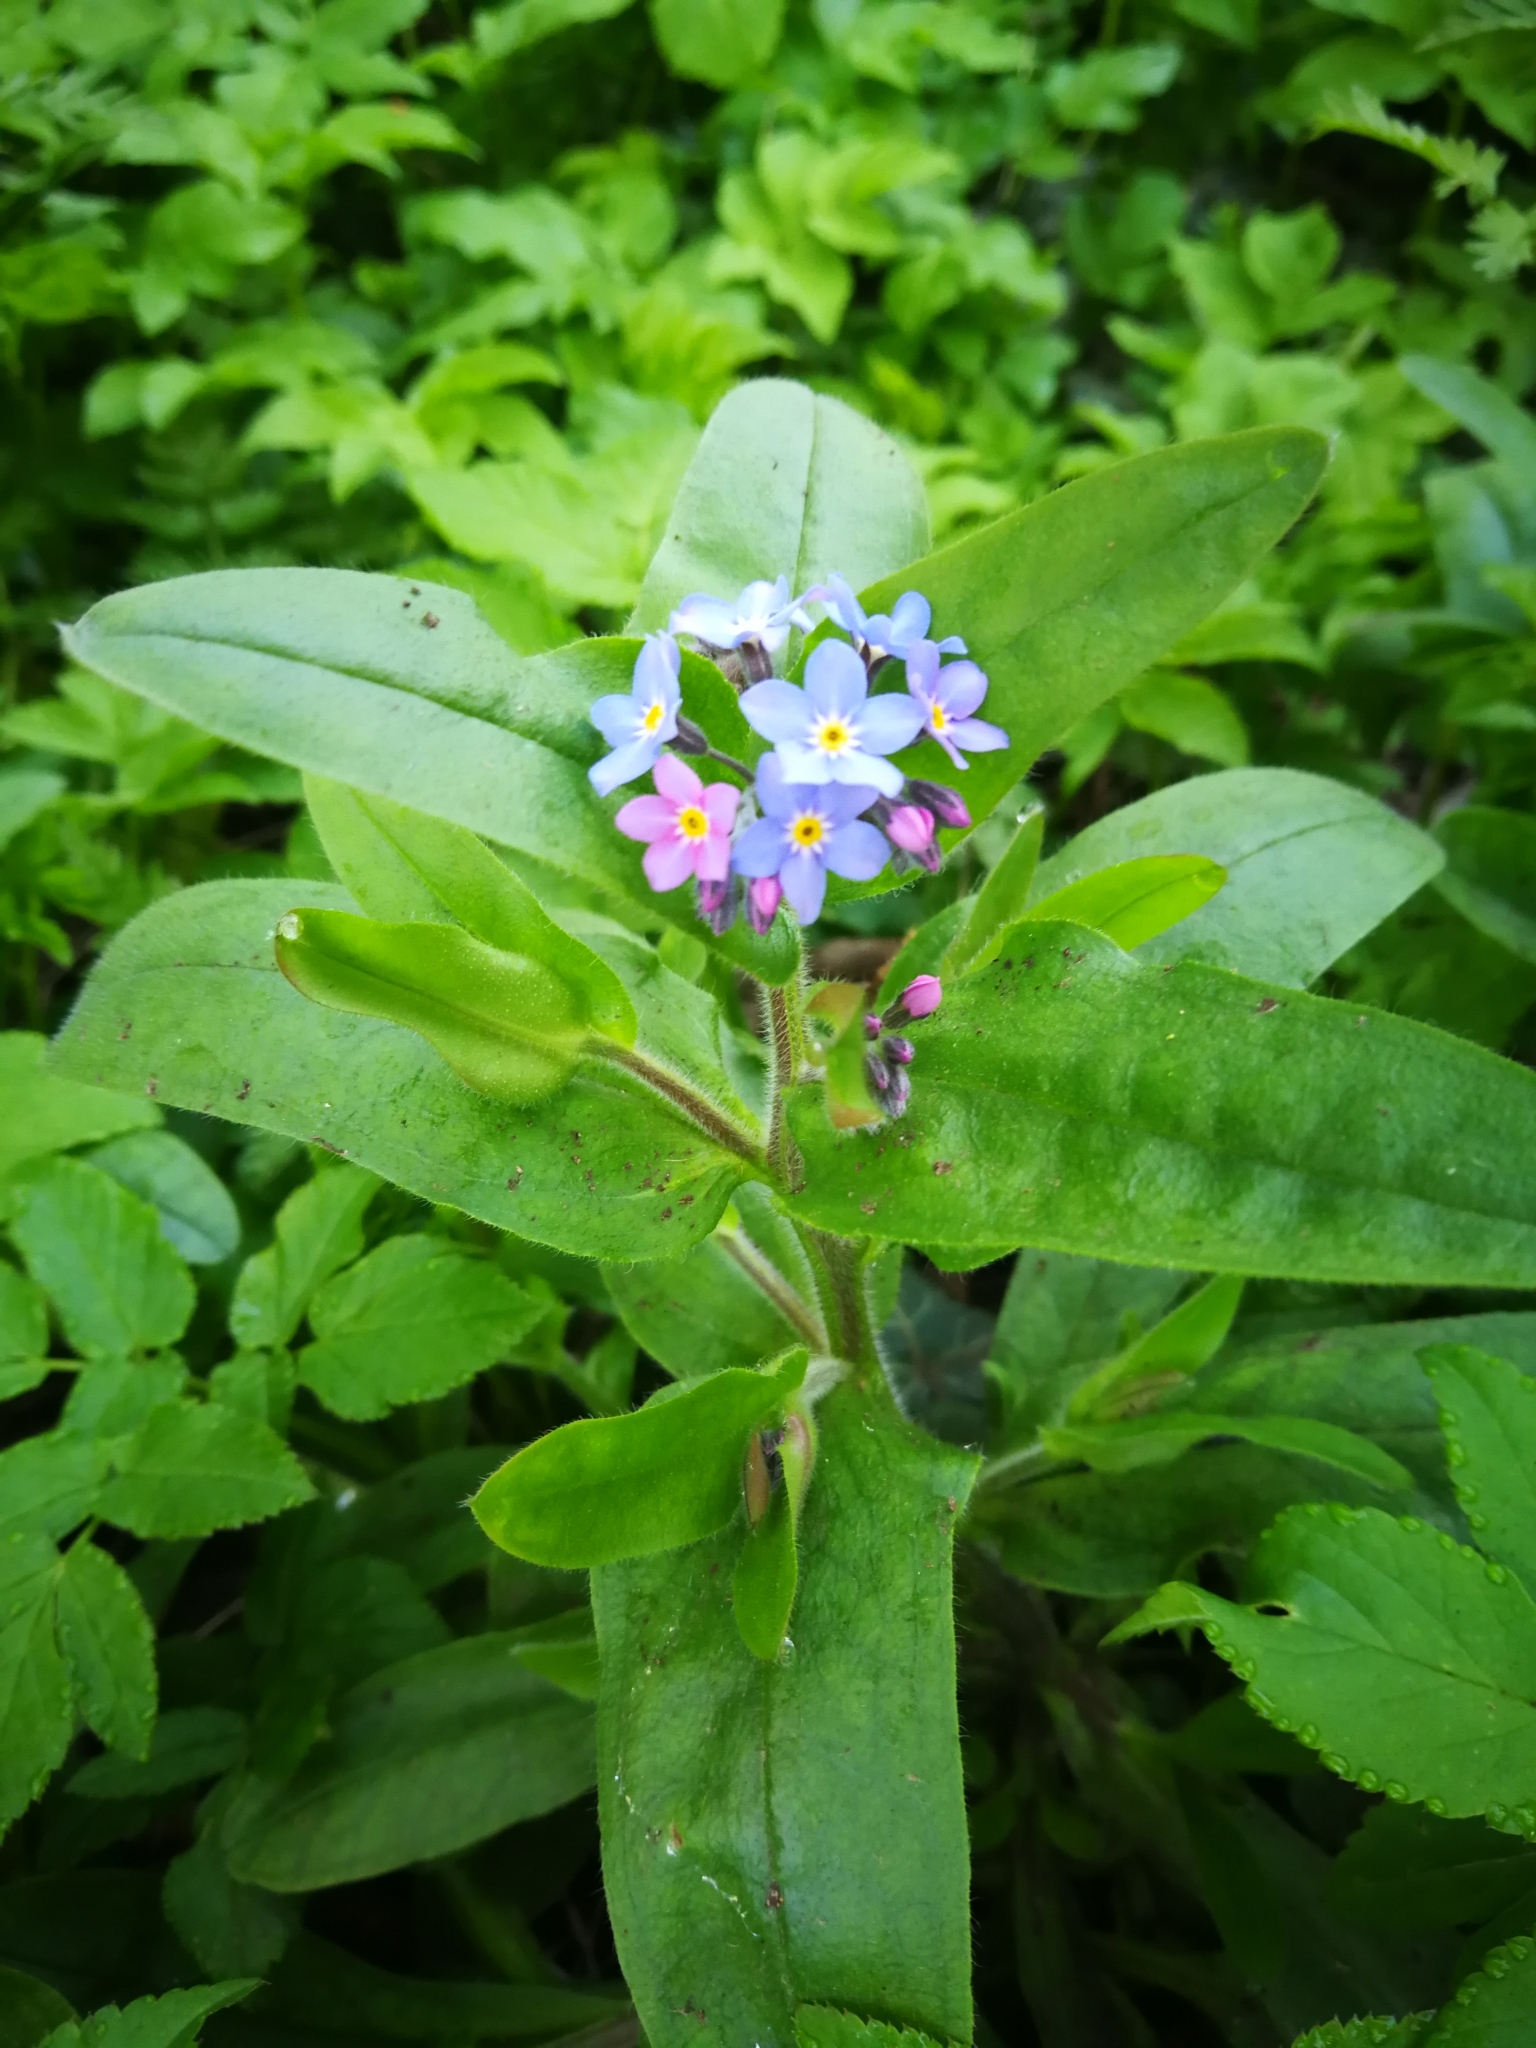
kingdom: Plantae
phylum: Tracheophyta
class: Magnoliopsida
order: Boraginales
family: Boraginaceae
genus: Myosotis
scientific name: Myosotis sylvatica
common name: Wood forget-me-not
